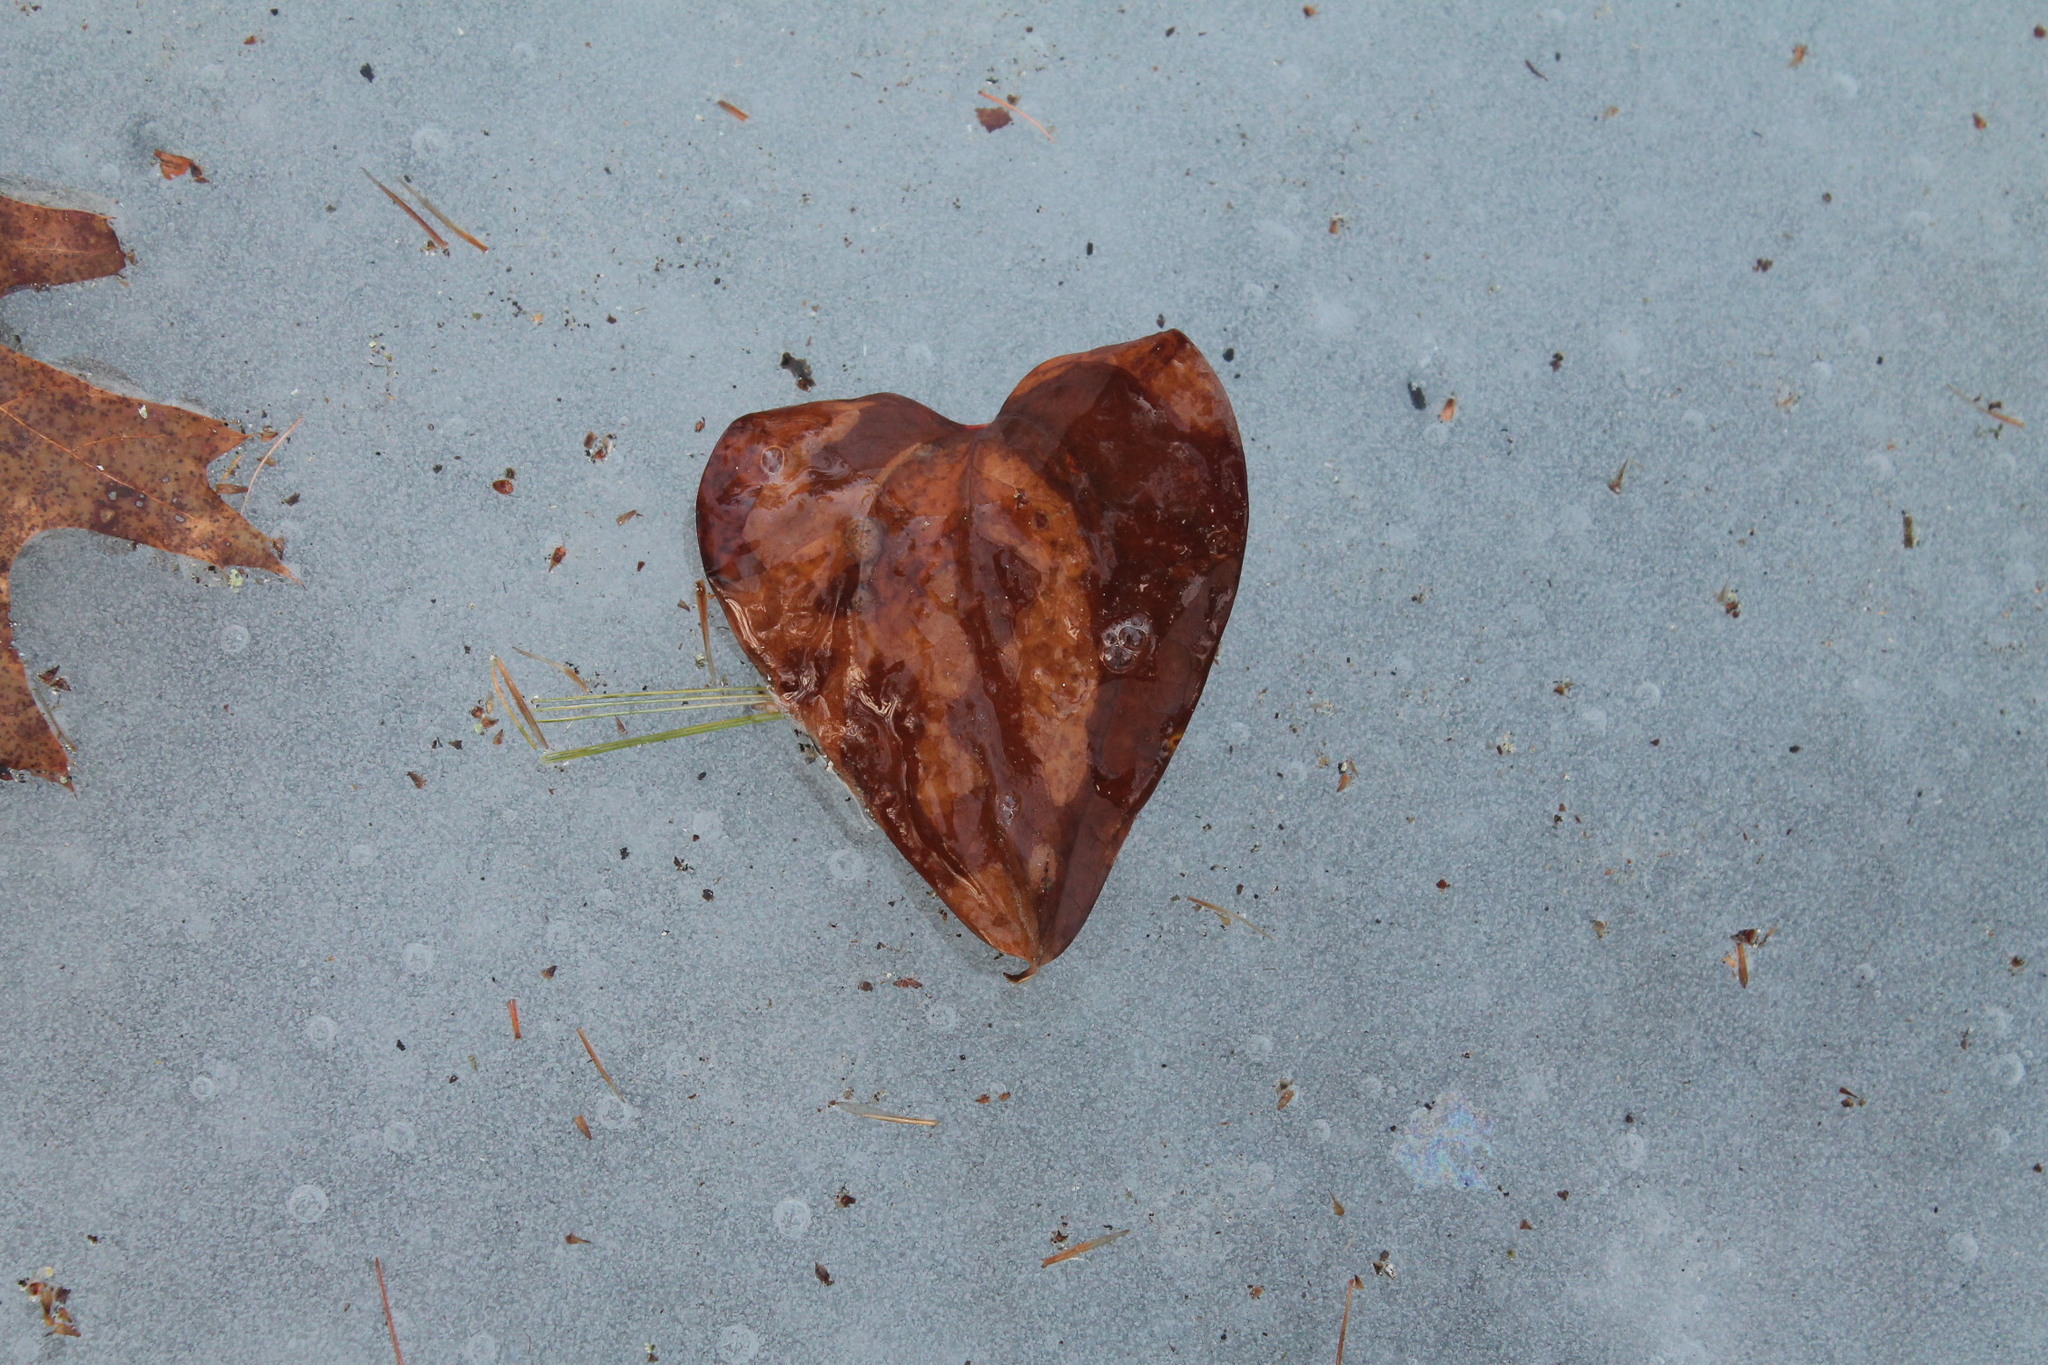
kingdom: Plantae
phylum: Tracheophyta
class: Liliopsida
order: Liliales
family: Smilacaceae
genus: Smilax
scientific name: Smilax glauca
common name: Cat greenbrier
